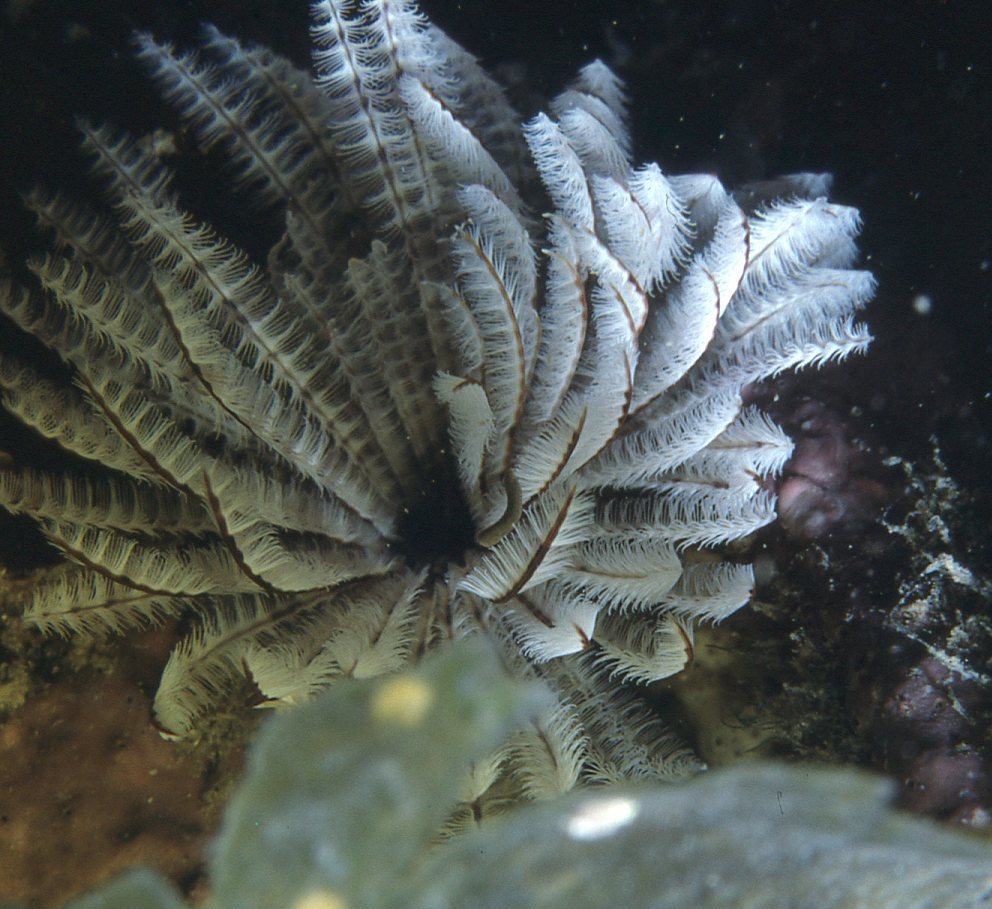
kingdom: Animalia
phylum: Annelida
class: Polychaeta
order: Sabellida
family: Sabellidae
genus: Sabellastarte
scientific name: Sabellastarte australiensis
